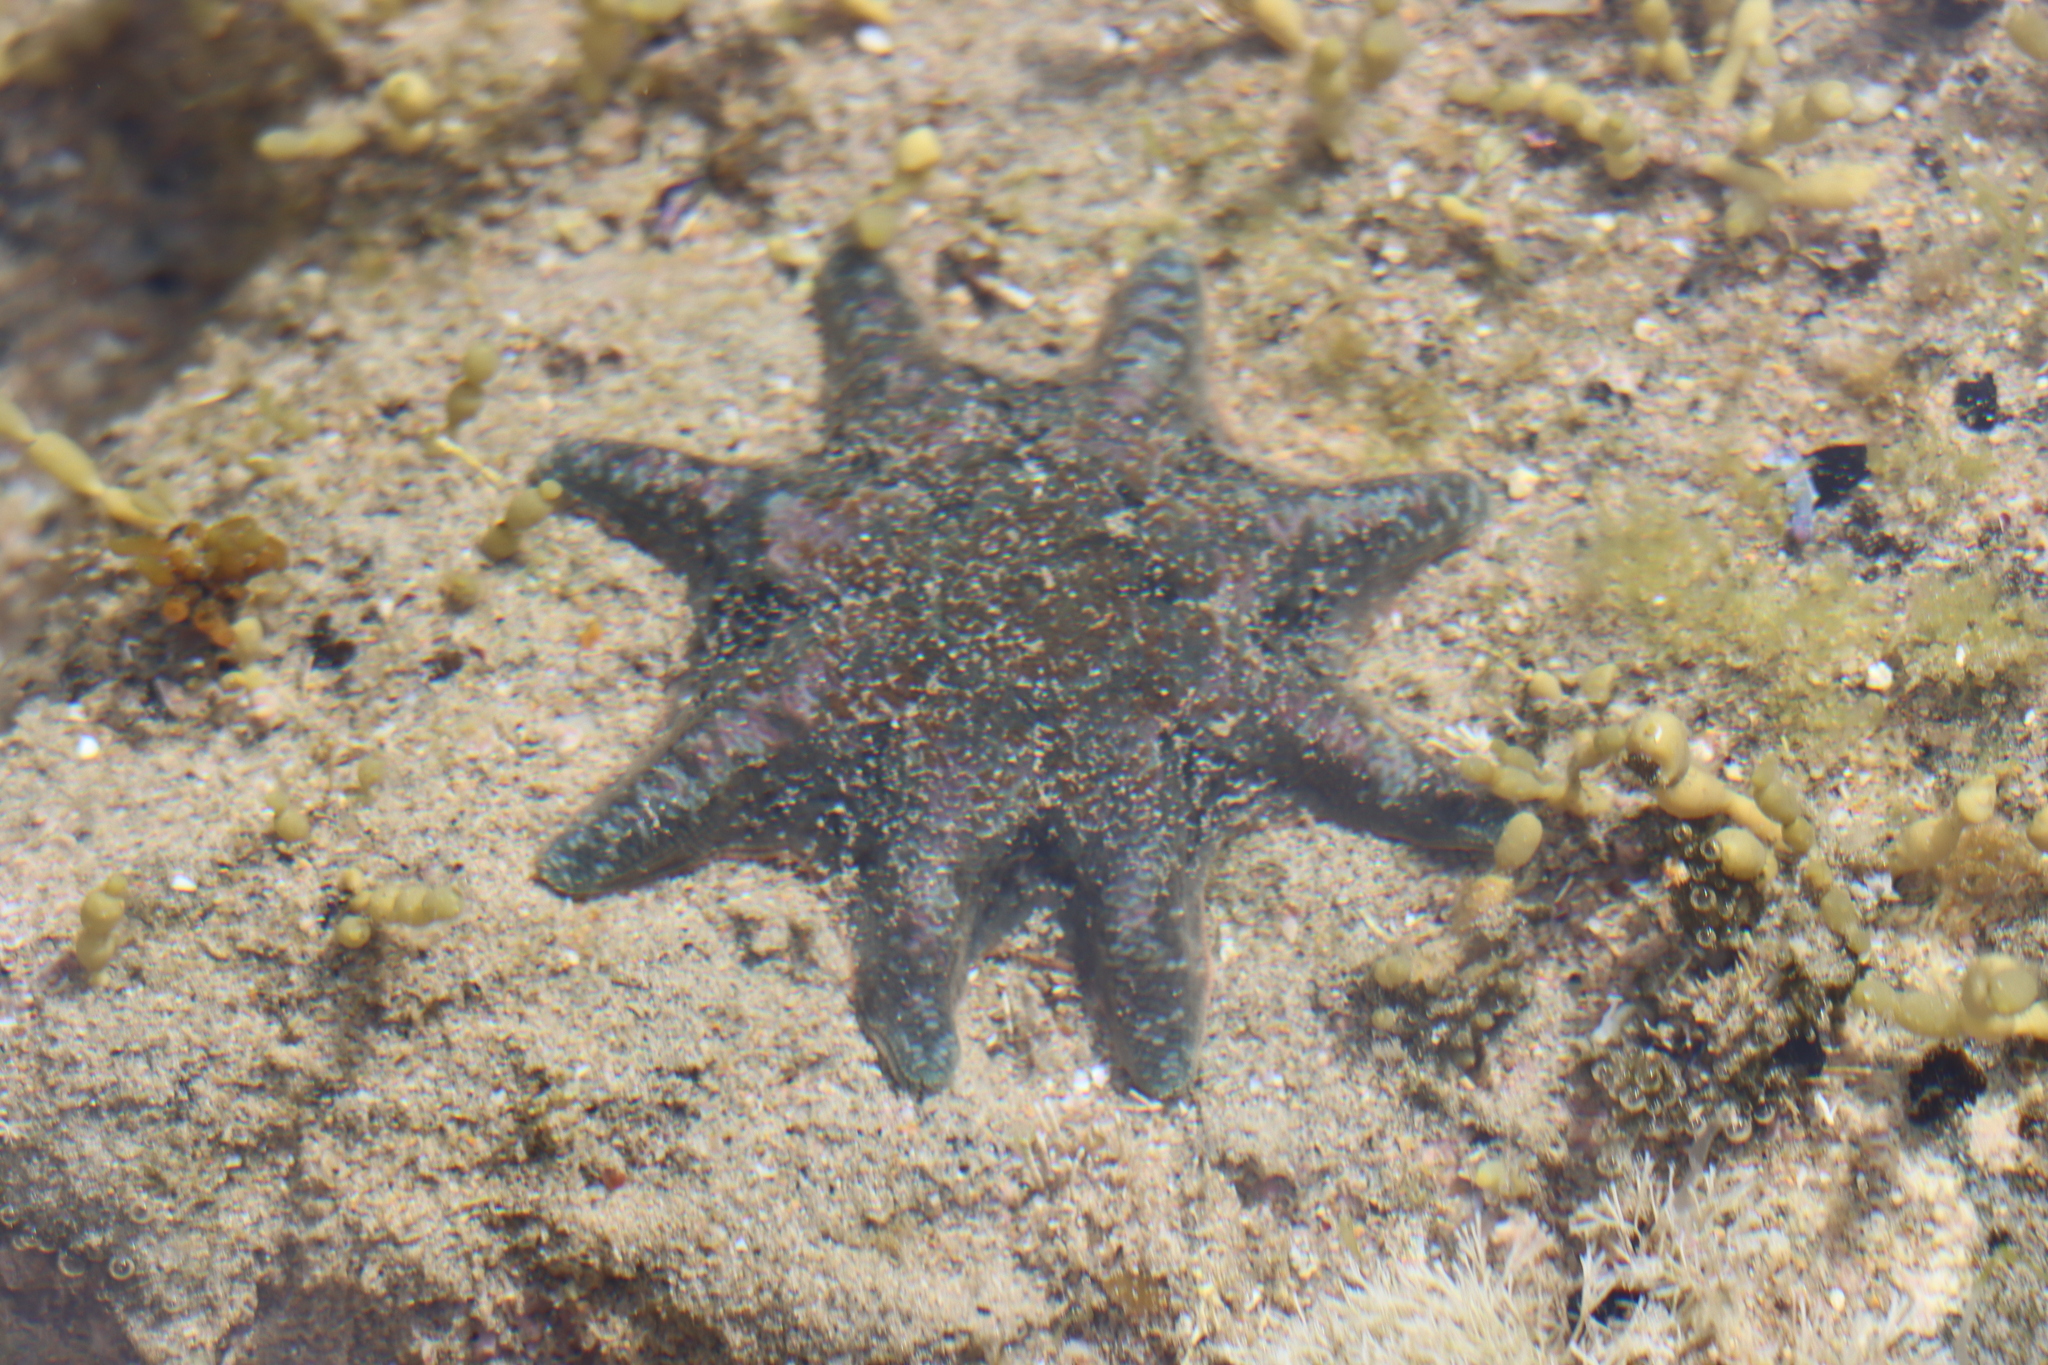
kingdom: Animalia
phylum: Echinodermata
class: Asteroidea
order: Valvatida
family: Asterinidae
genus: Meridiastra
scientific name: Meridiastra calcar
